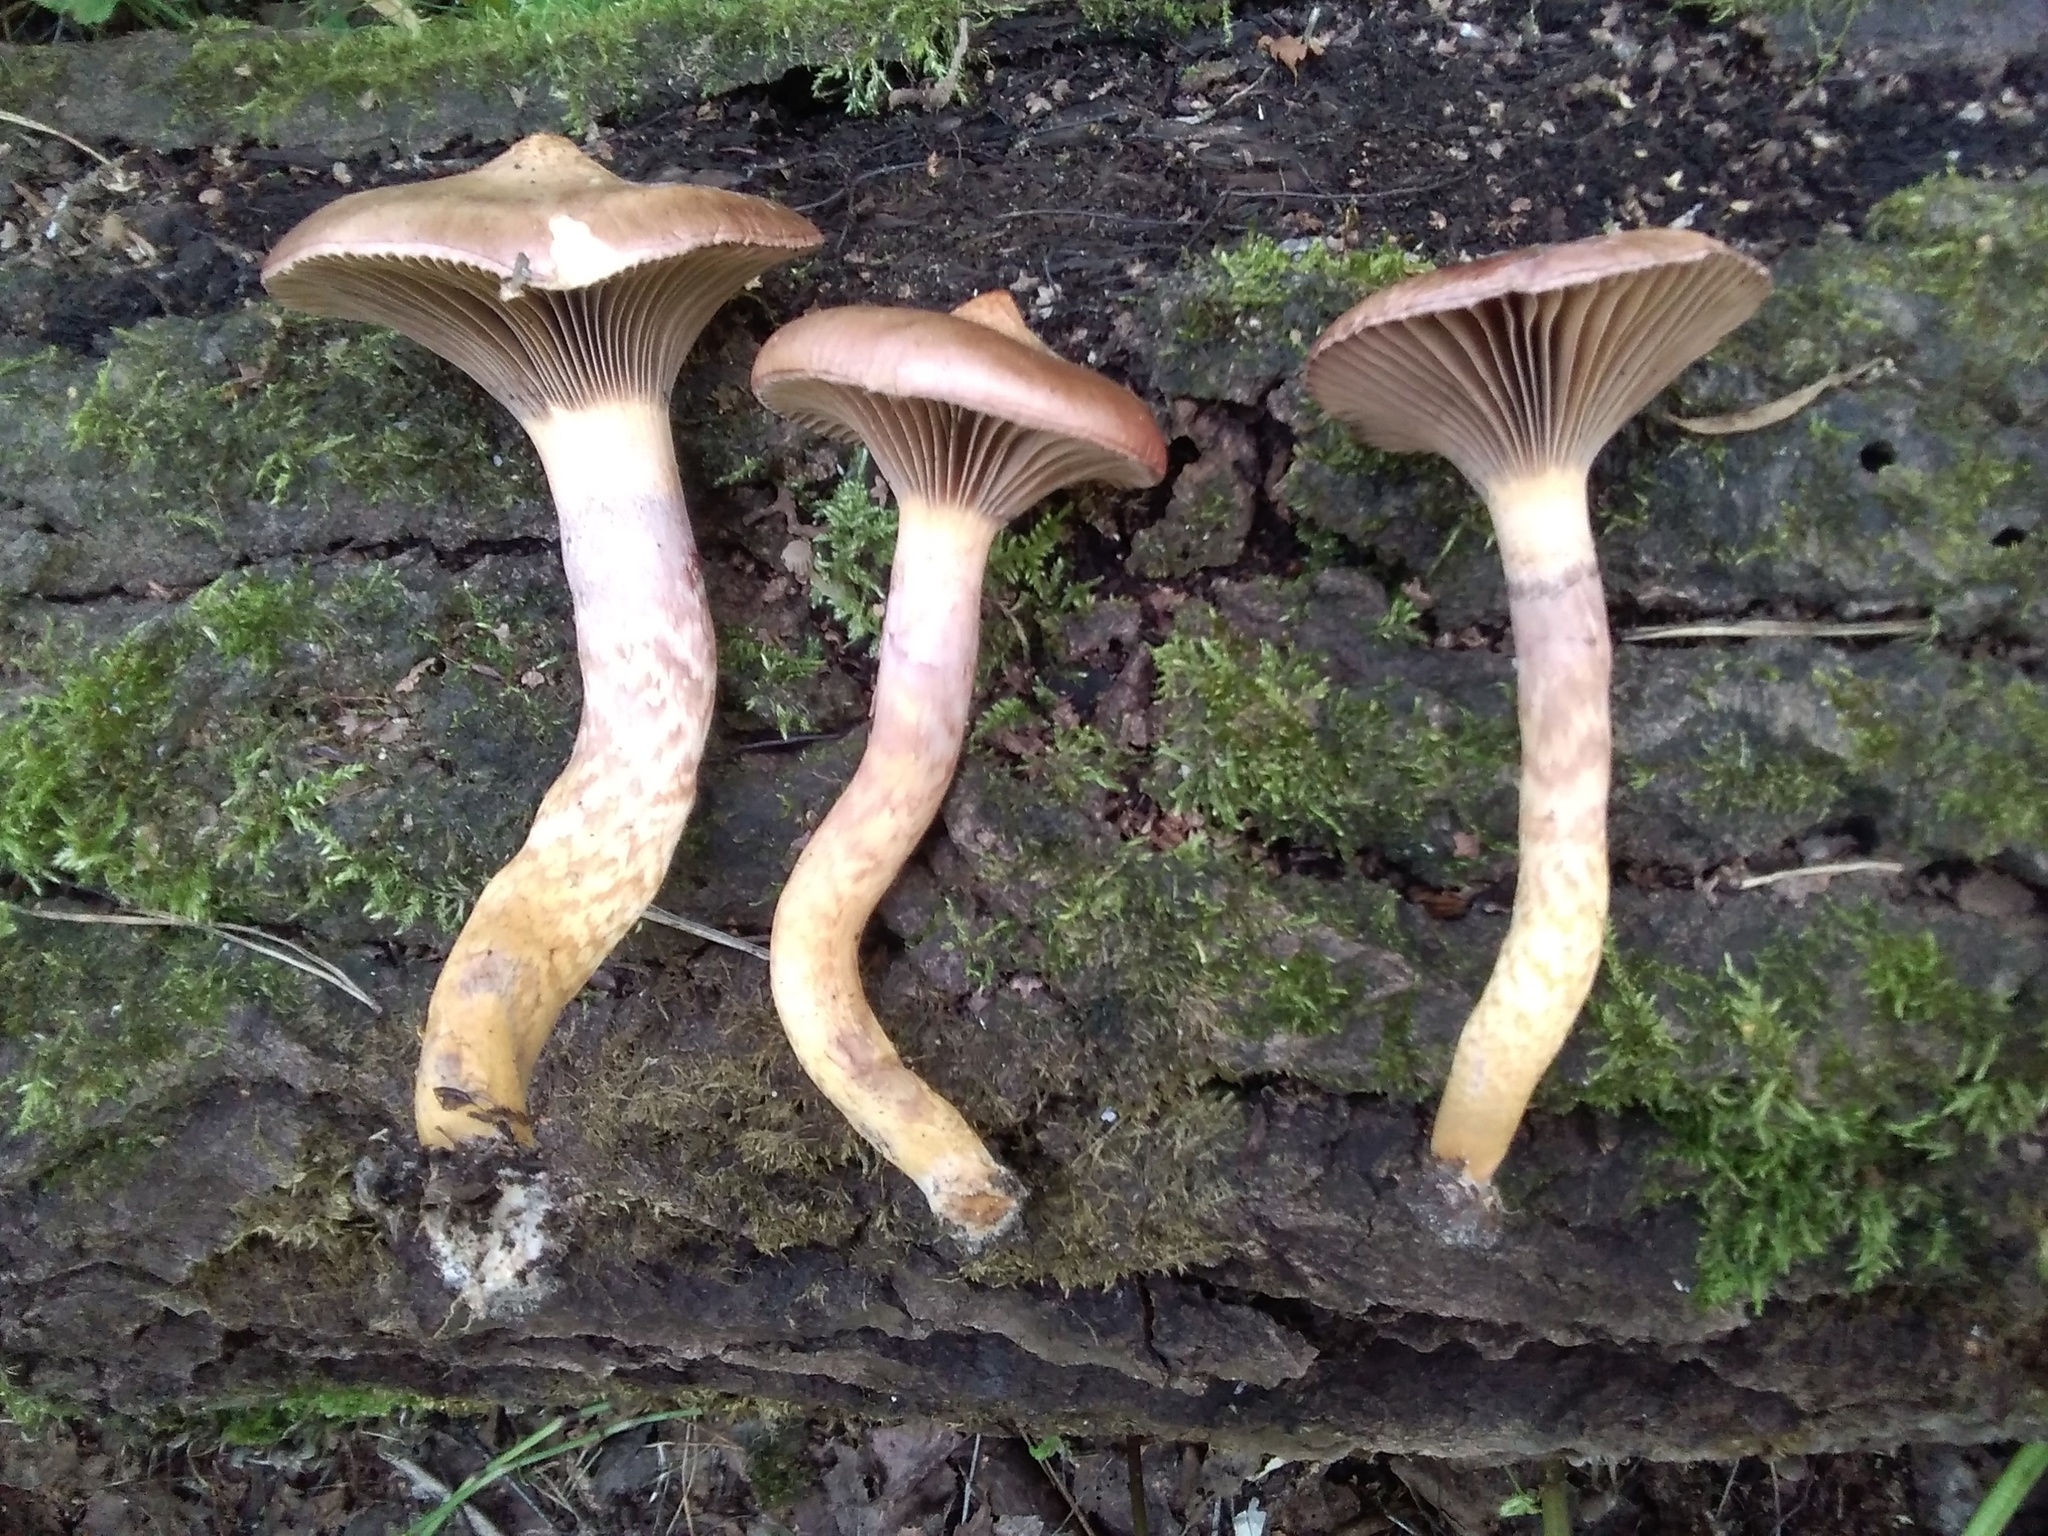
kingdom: Fungi
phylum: Basidiomycota
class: Agaricomycetes
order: Boletales
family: Gomphidiaceae
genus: Chroogomphus
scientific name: Chroogomphus rutilus
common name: Copper spike
